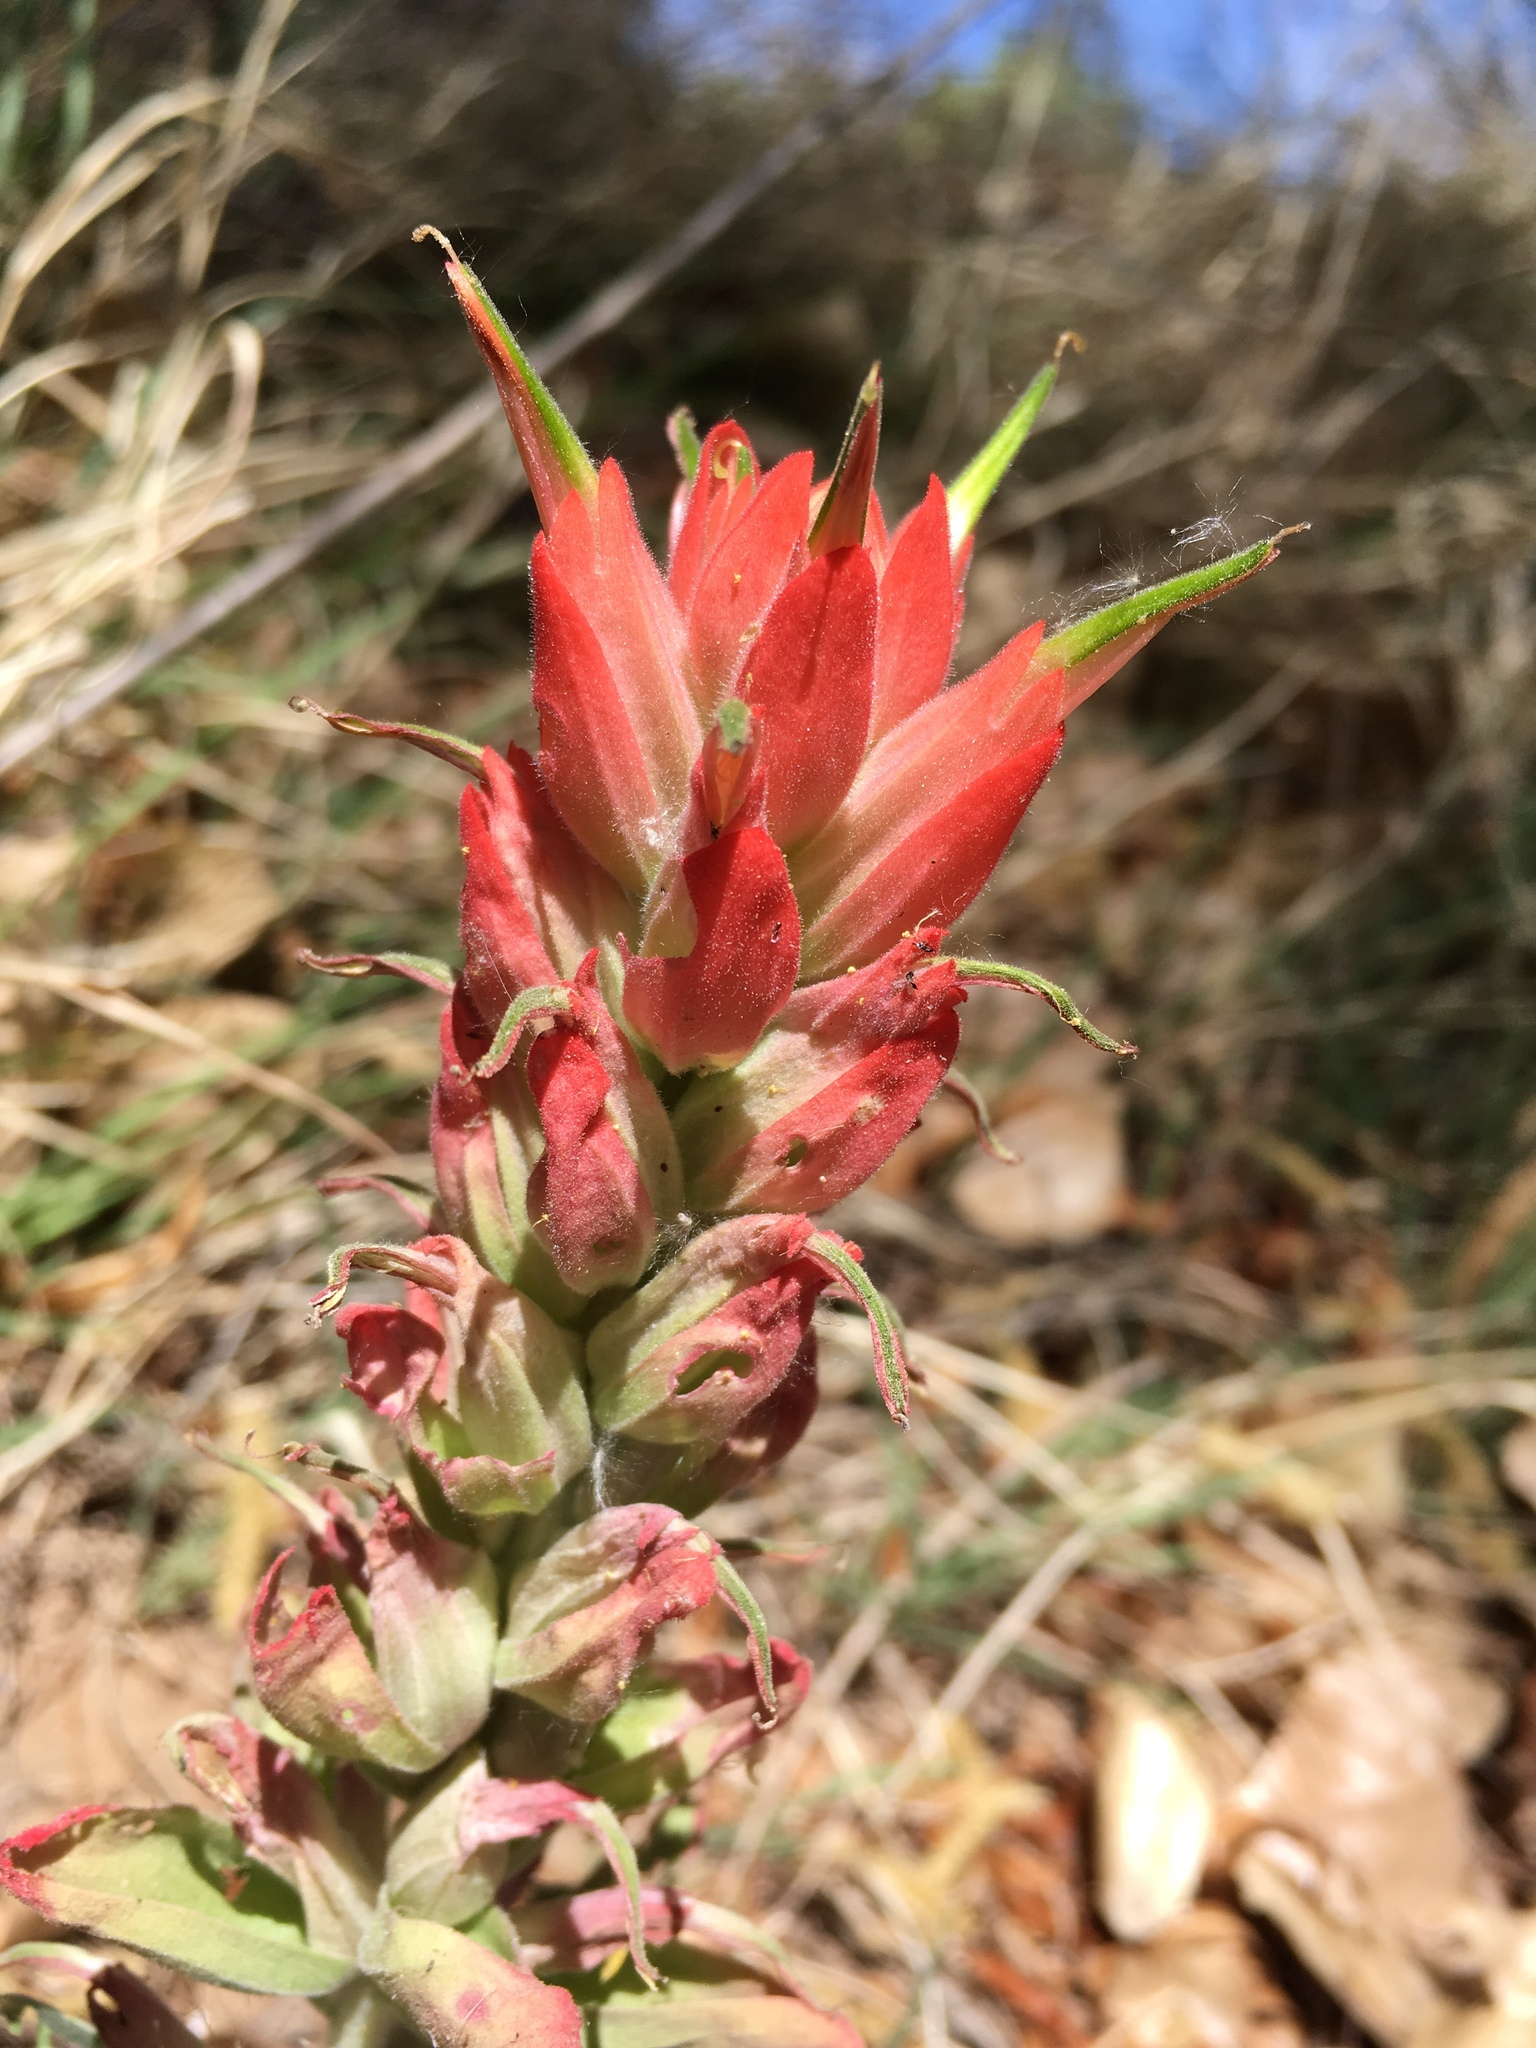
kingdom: Plantae
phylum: Tracheophyta
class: Magnoliopsida
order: Lamiales
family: Orobanchaceae
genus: Castilleja
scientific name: Castilleja integra
